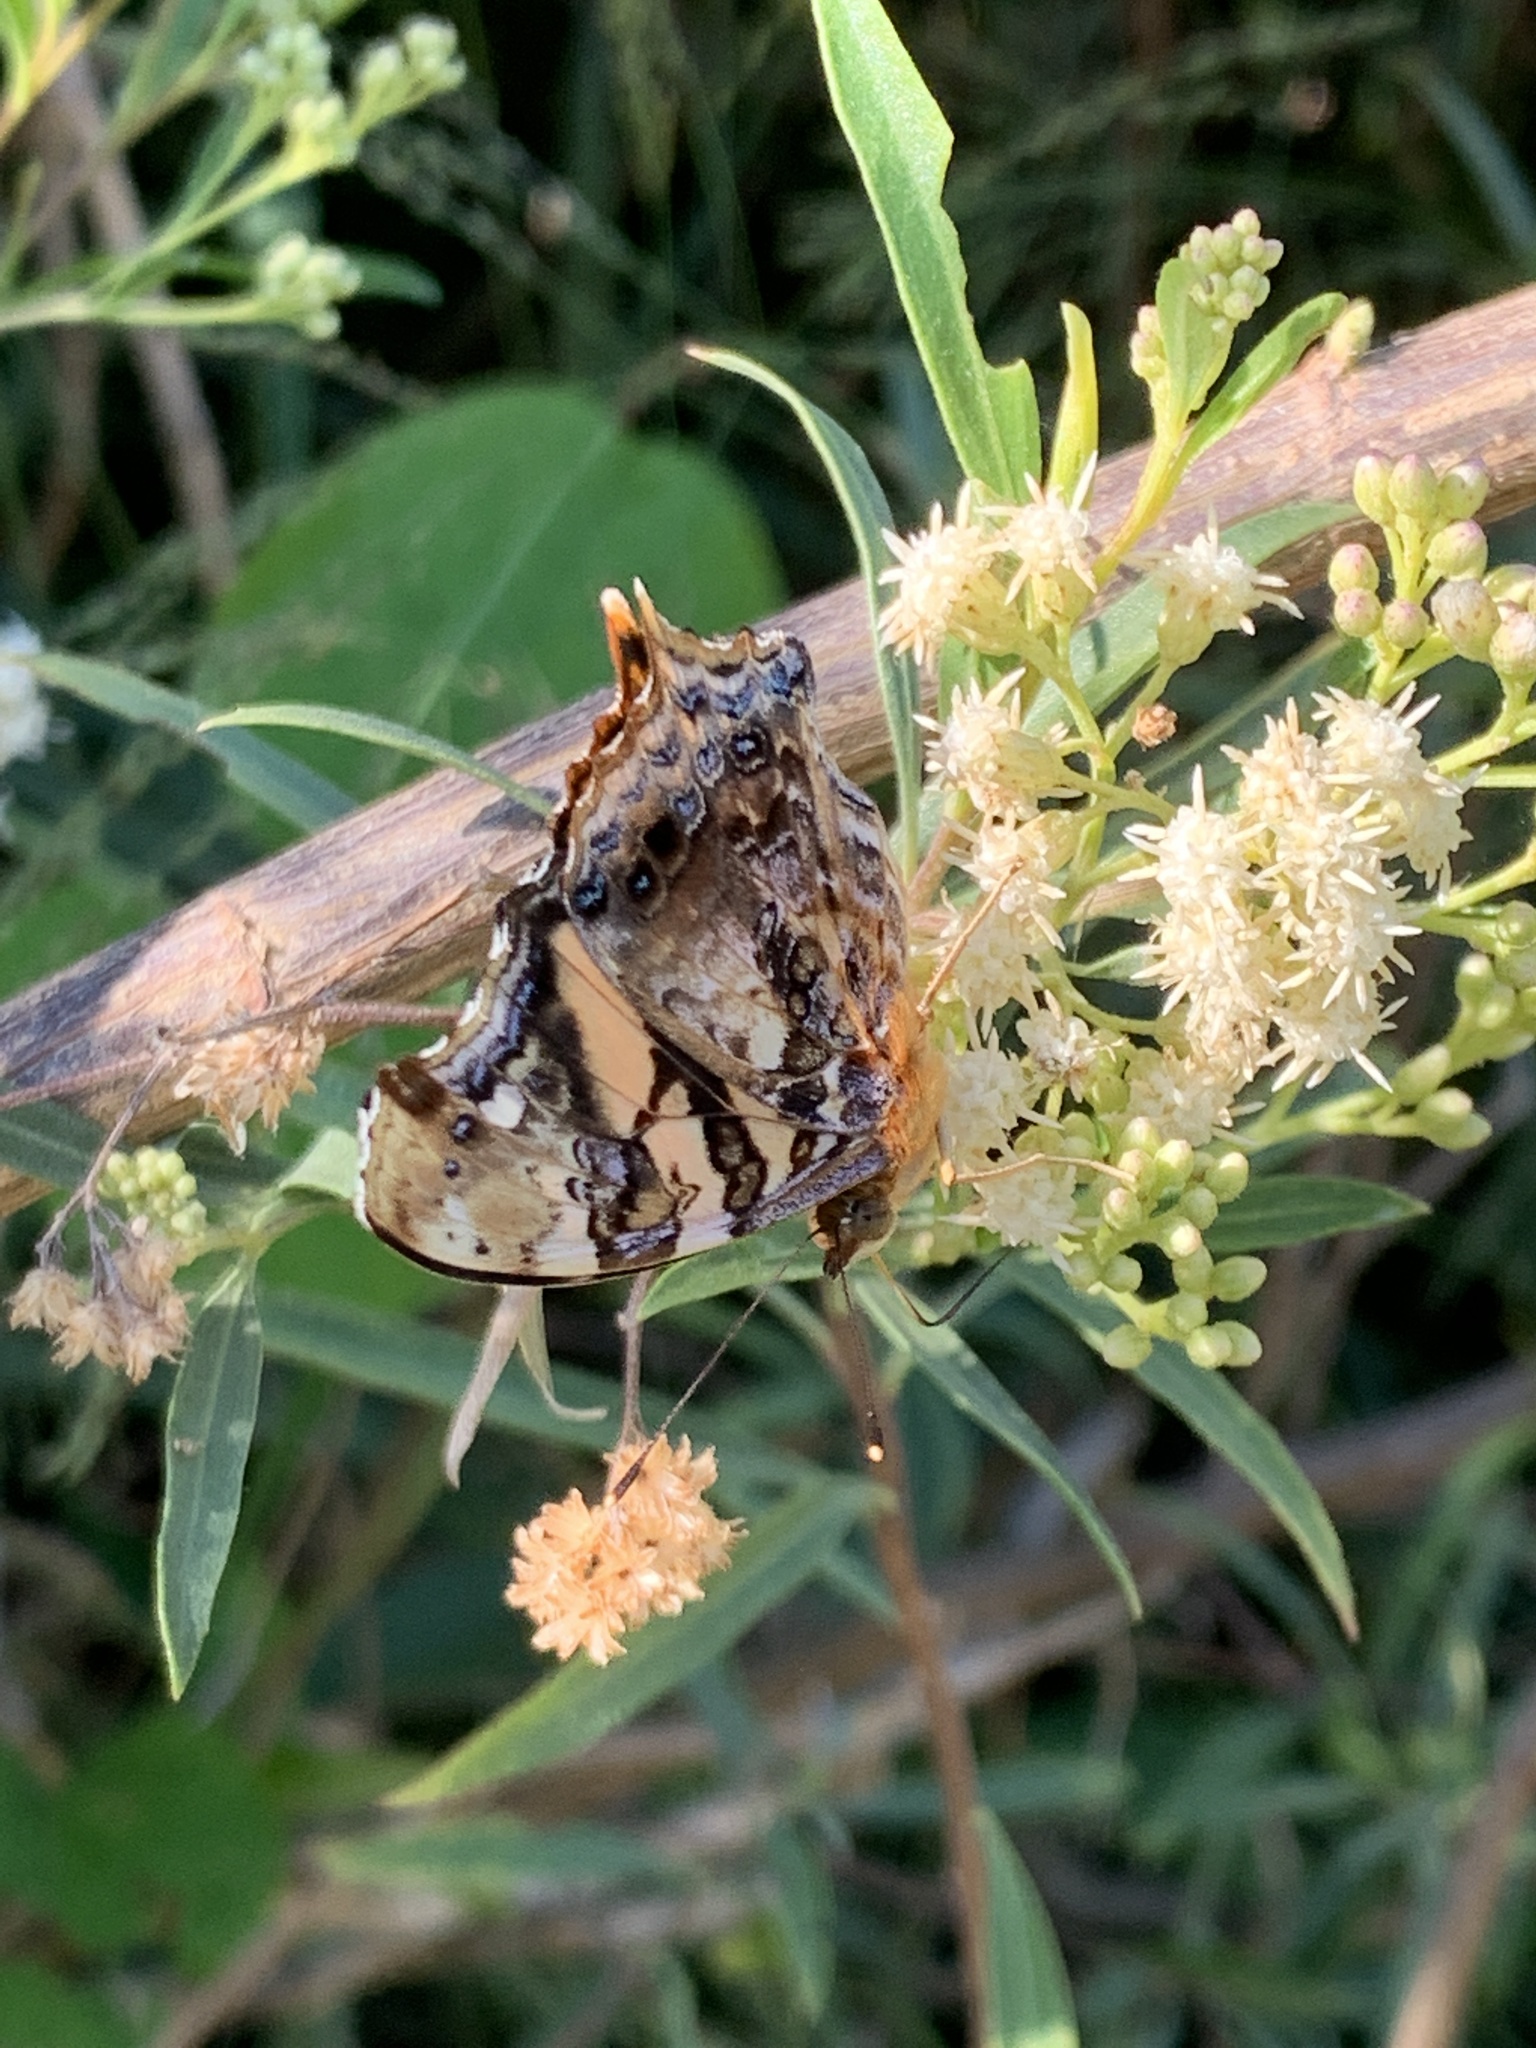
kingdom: Animalia
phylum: Arthropoda
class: Insecta
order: Lepidoptera
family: Nymphalidae
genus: Hypanartia
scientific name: Hypanartia bella
